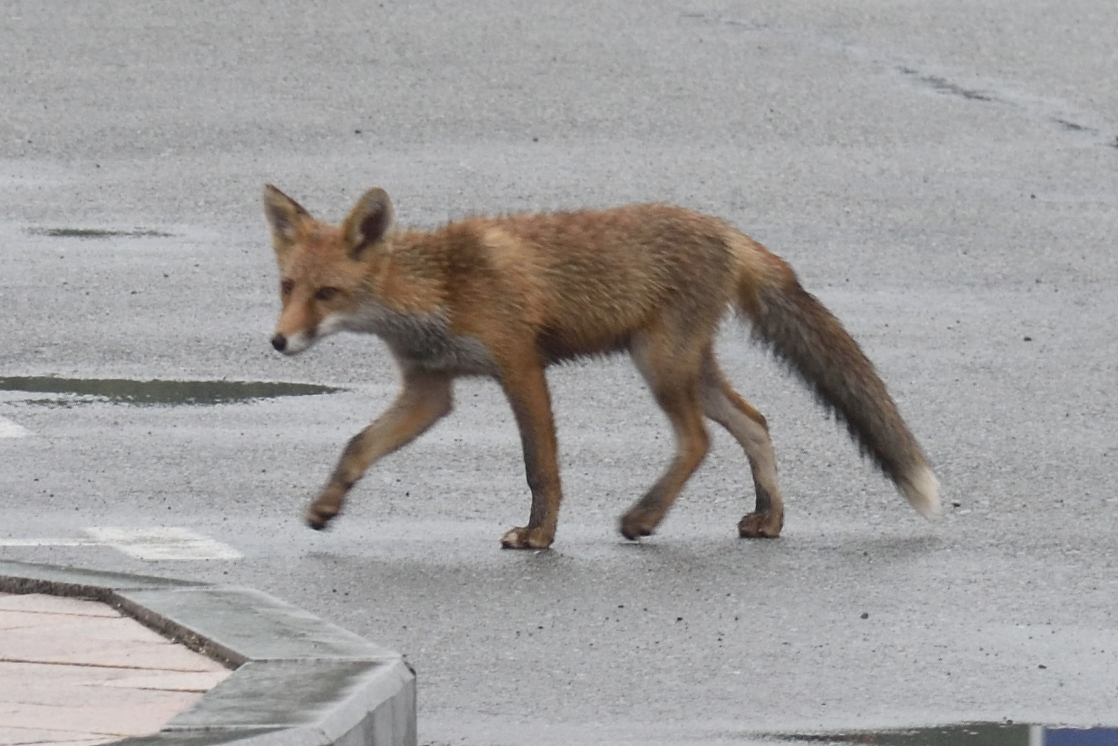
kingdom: Animalia
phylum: Chordata
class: Mammalia
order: Carnivora
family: Canidae
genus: Vulpes
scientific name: Vulpes vulpes
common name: Red fox
